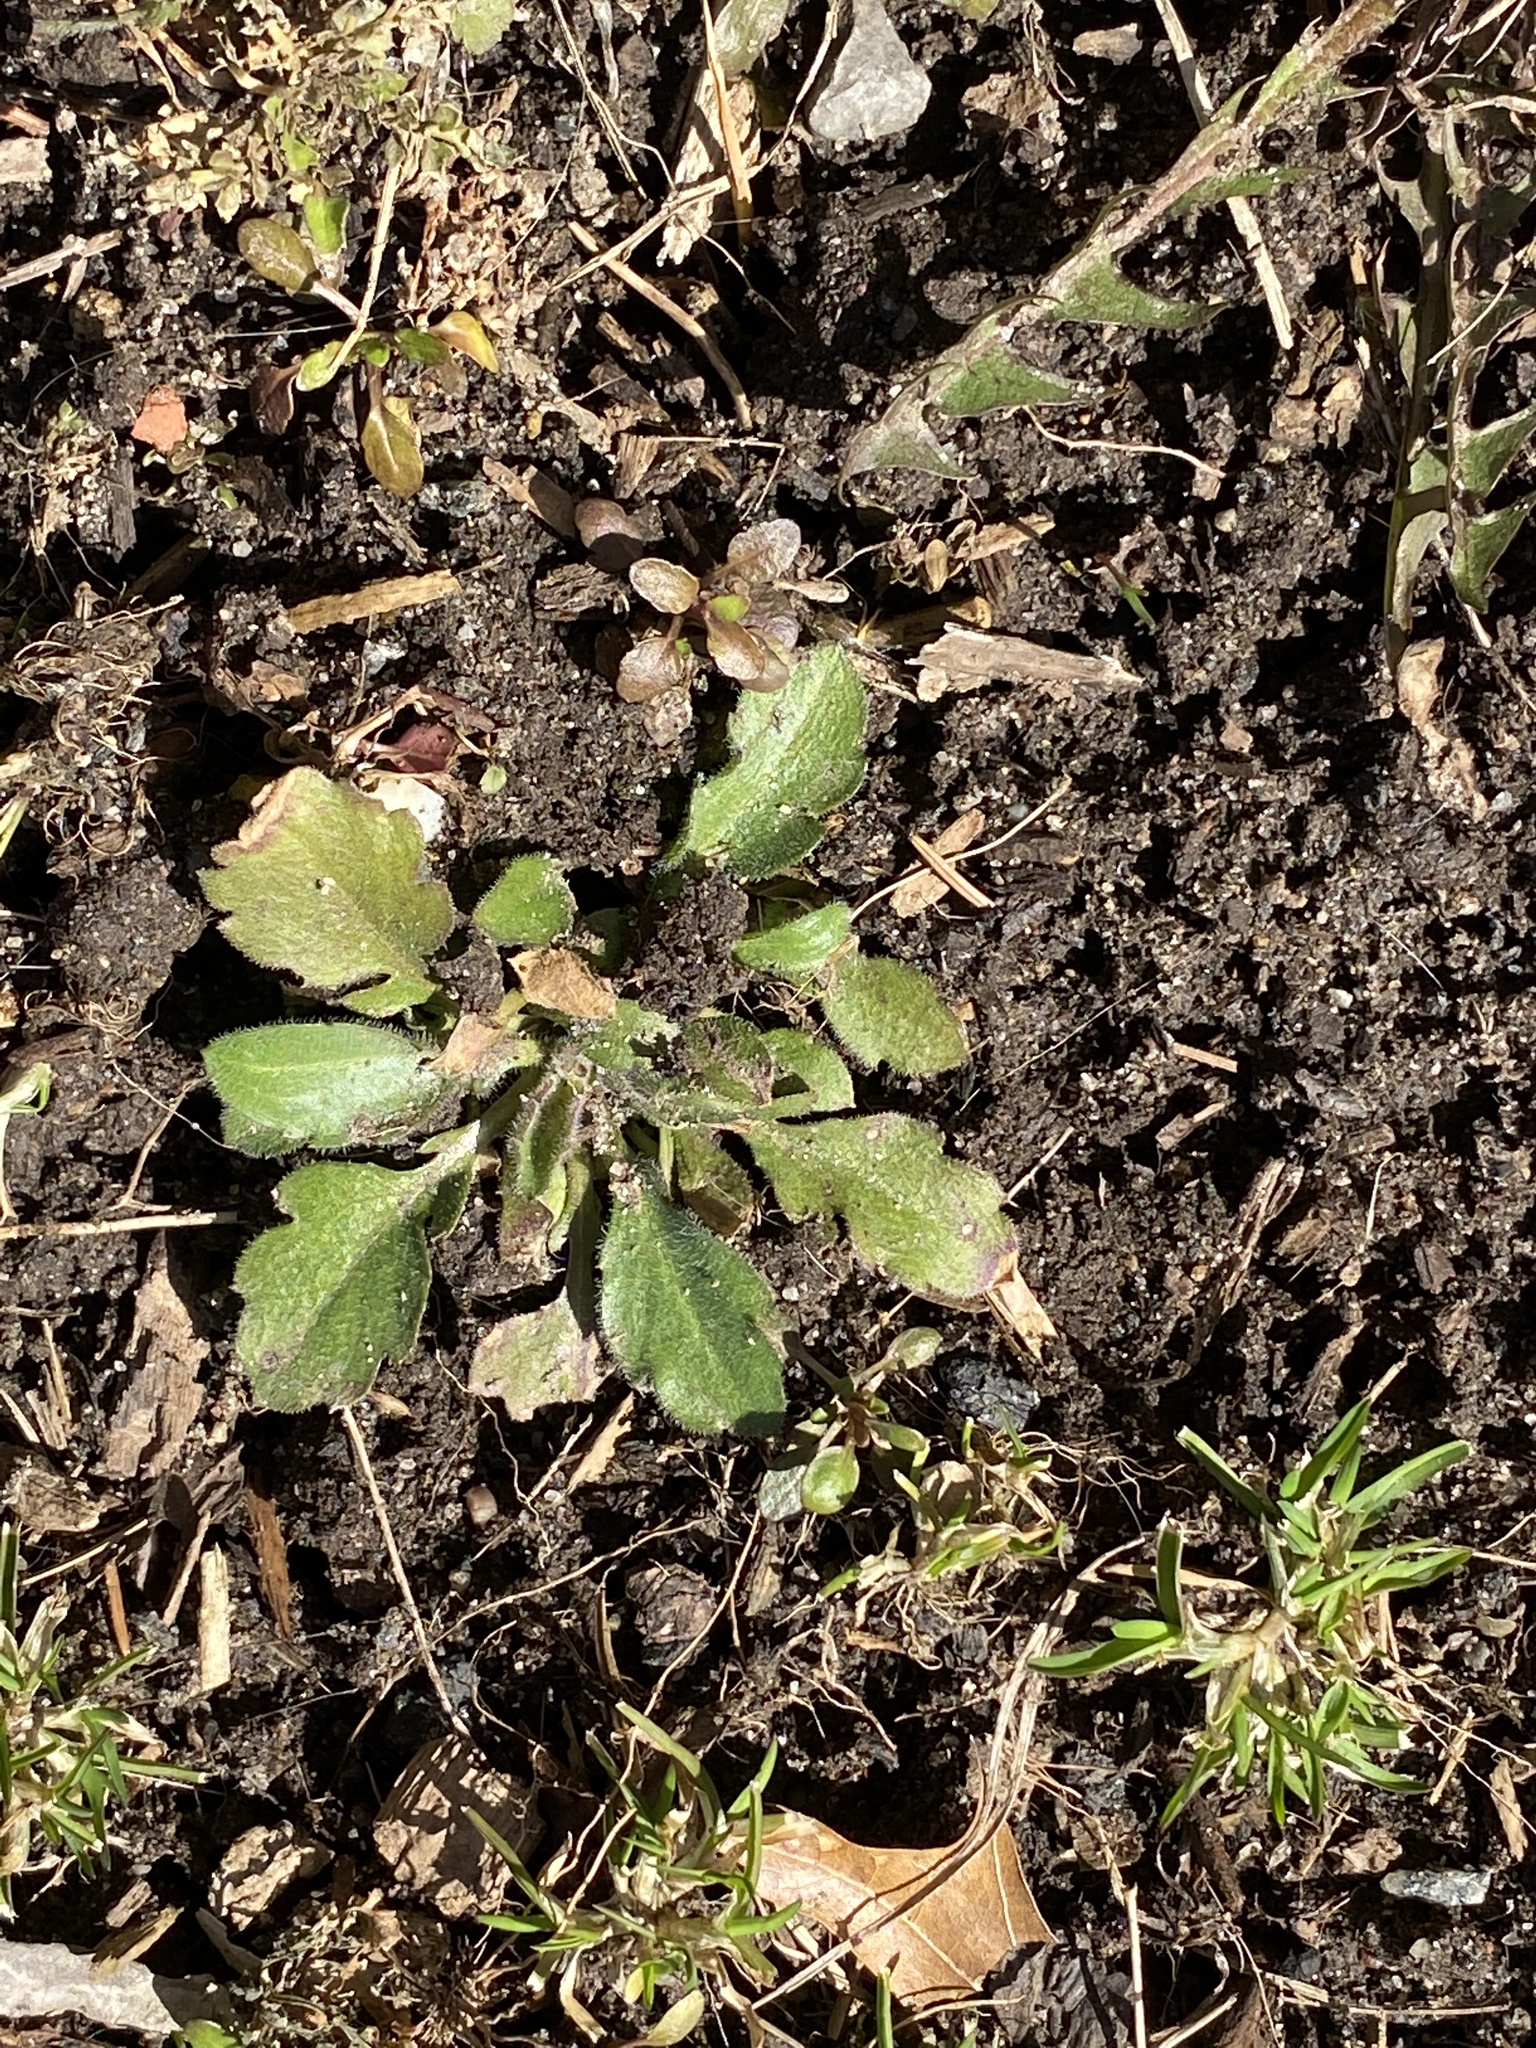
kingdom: Plantae
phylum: Tracheophyta
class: Magnoliopsida
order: Asterales
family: Asteraceae
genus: Erigeron
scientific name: Erigeron canadensis
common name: Canadian fleabane
